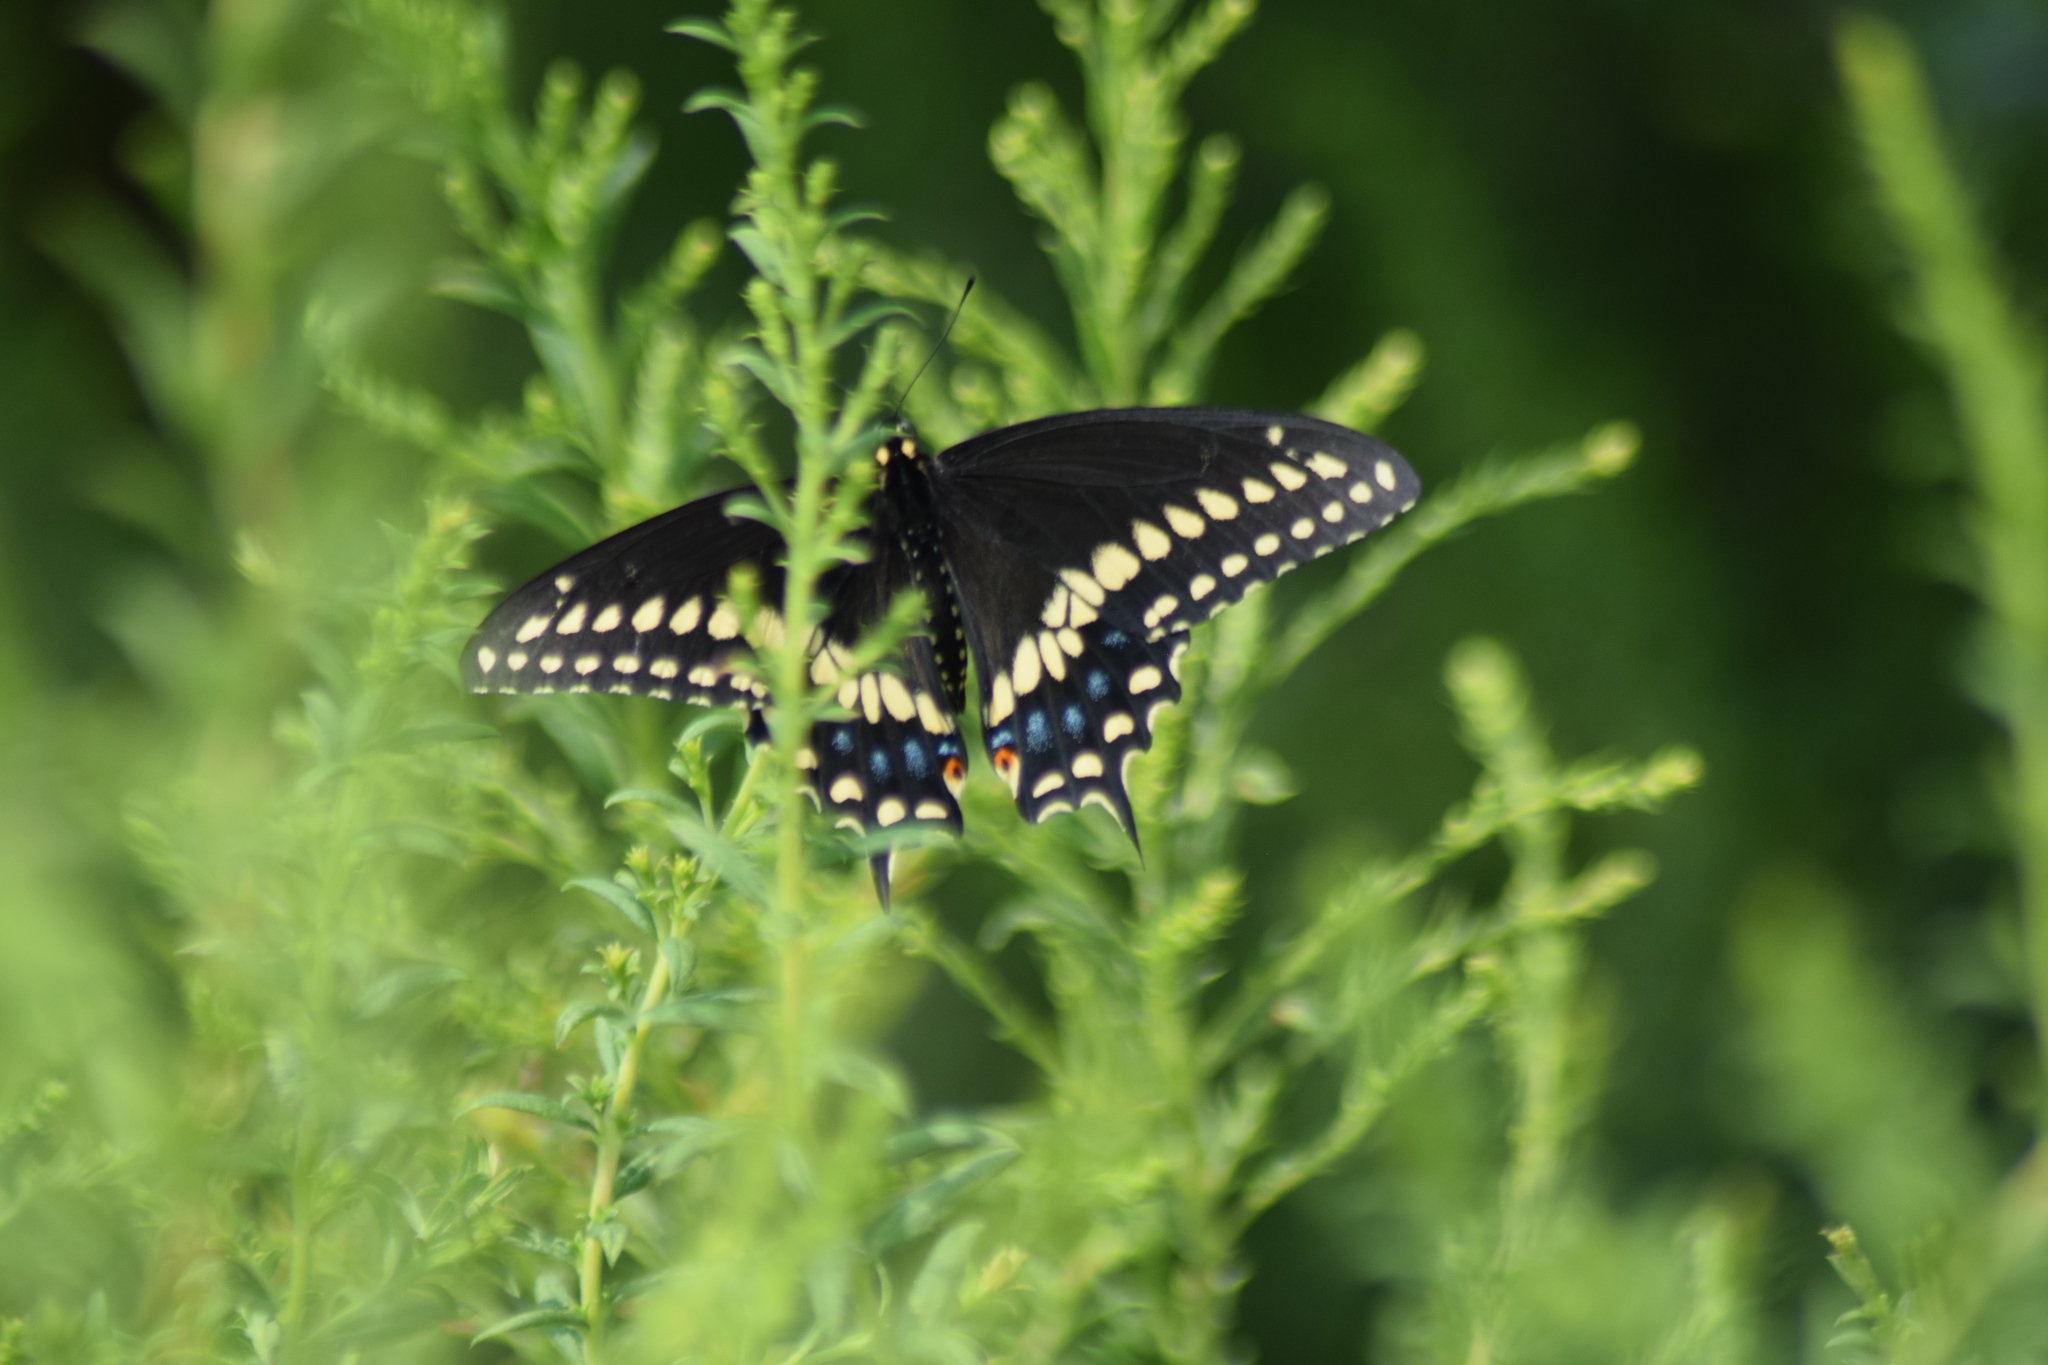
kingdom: Animalia
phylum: Arthropoda
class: Insecta
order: Lepidoptera
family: Papilionidae
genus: Papilio
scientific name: Papilio polyxenes
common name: Black swallowtail
